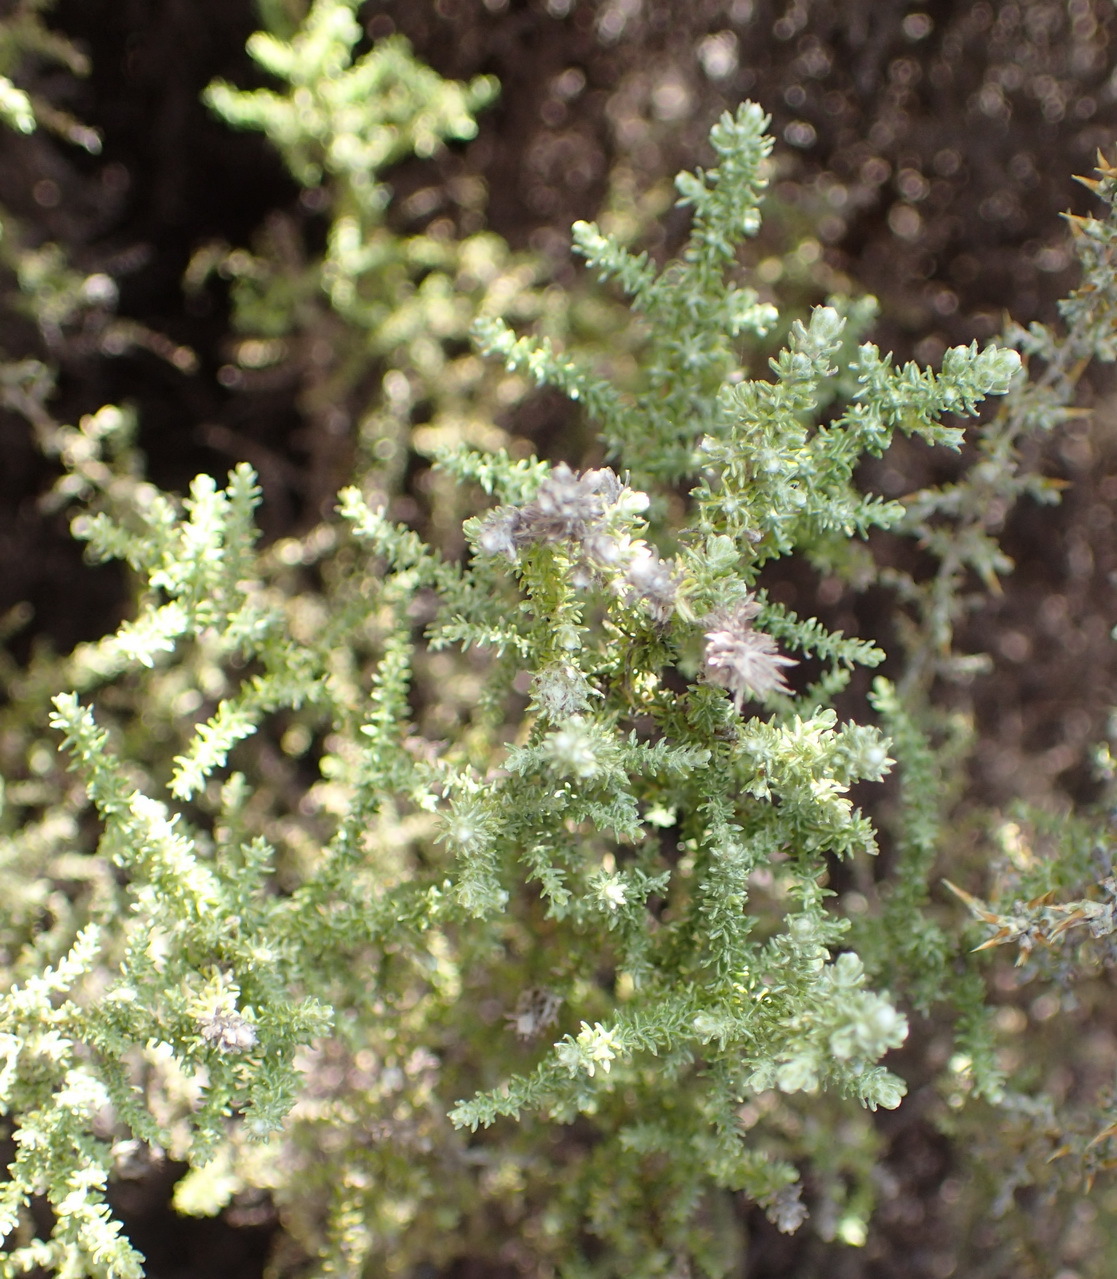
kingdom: Plantae
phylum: Tracheophyta
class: Magnoliopsida
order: Asterales
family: Asteraceae
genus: Seriphium
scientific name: Seriphium plumosum
